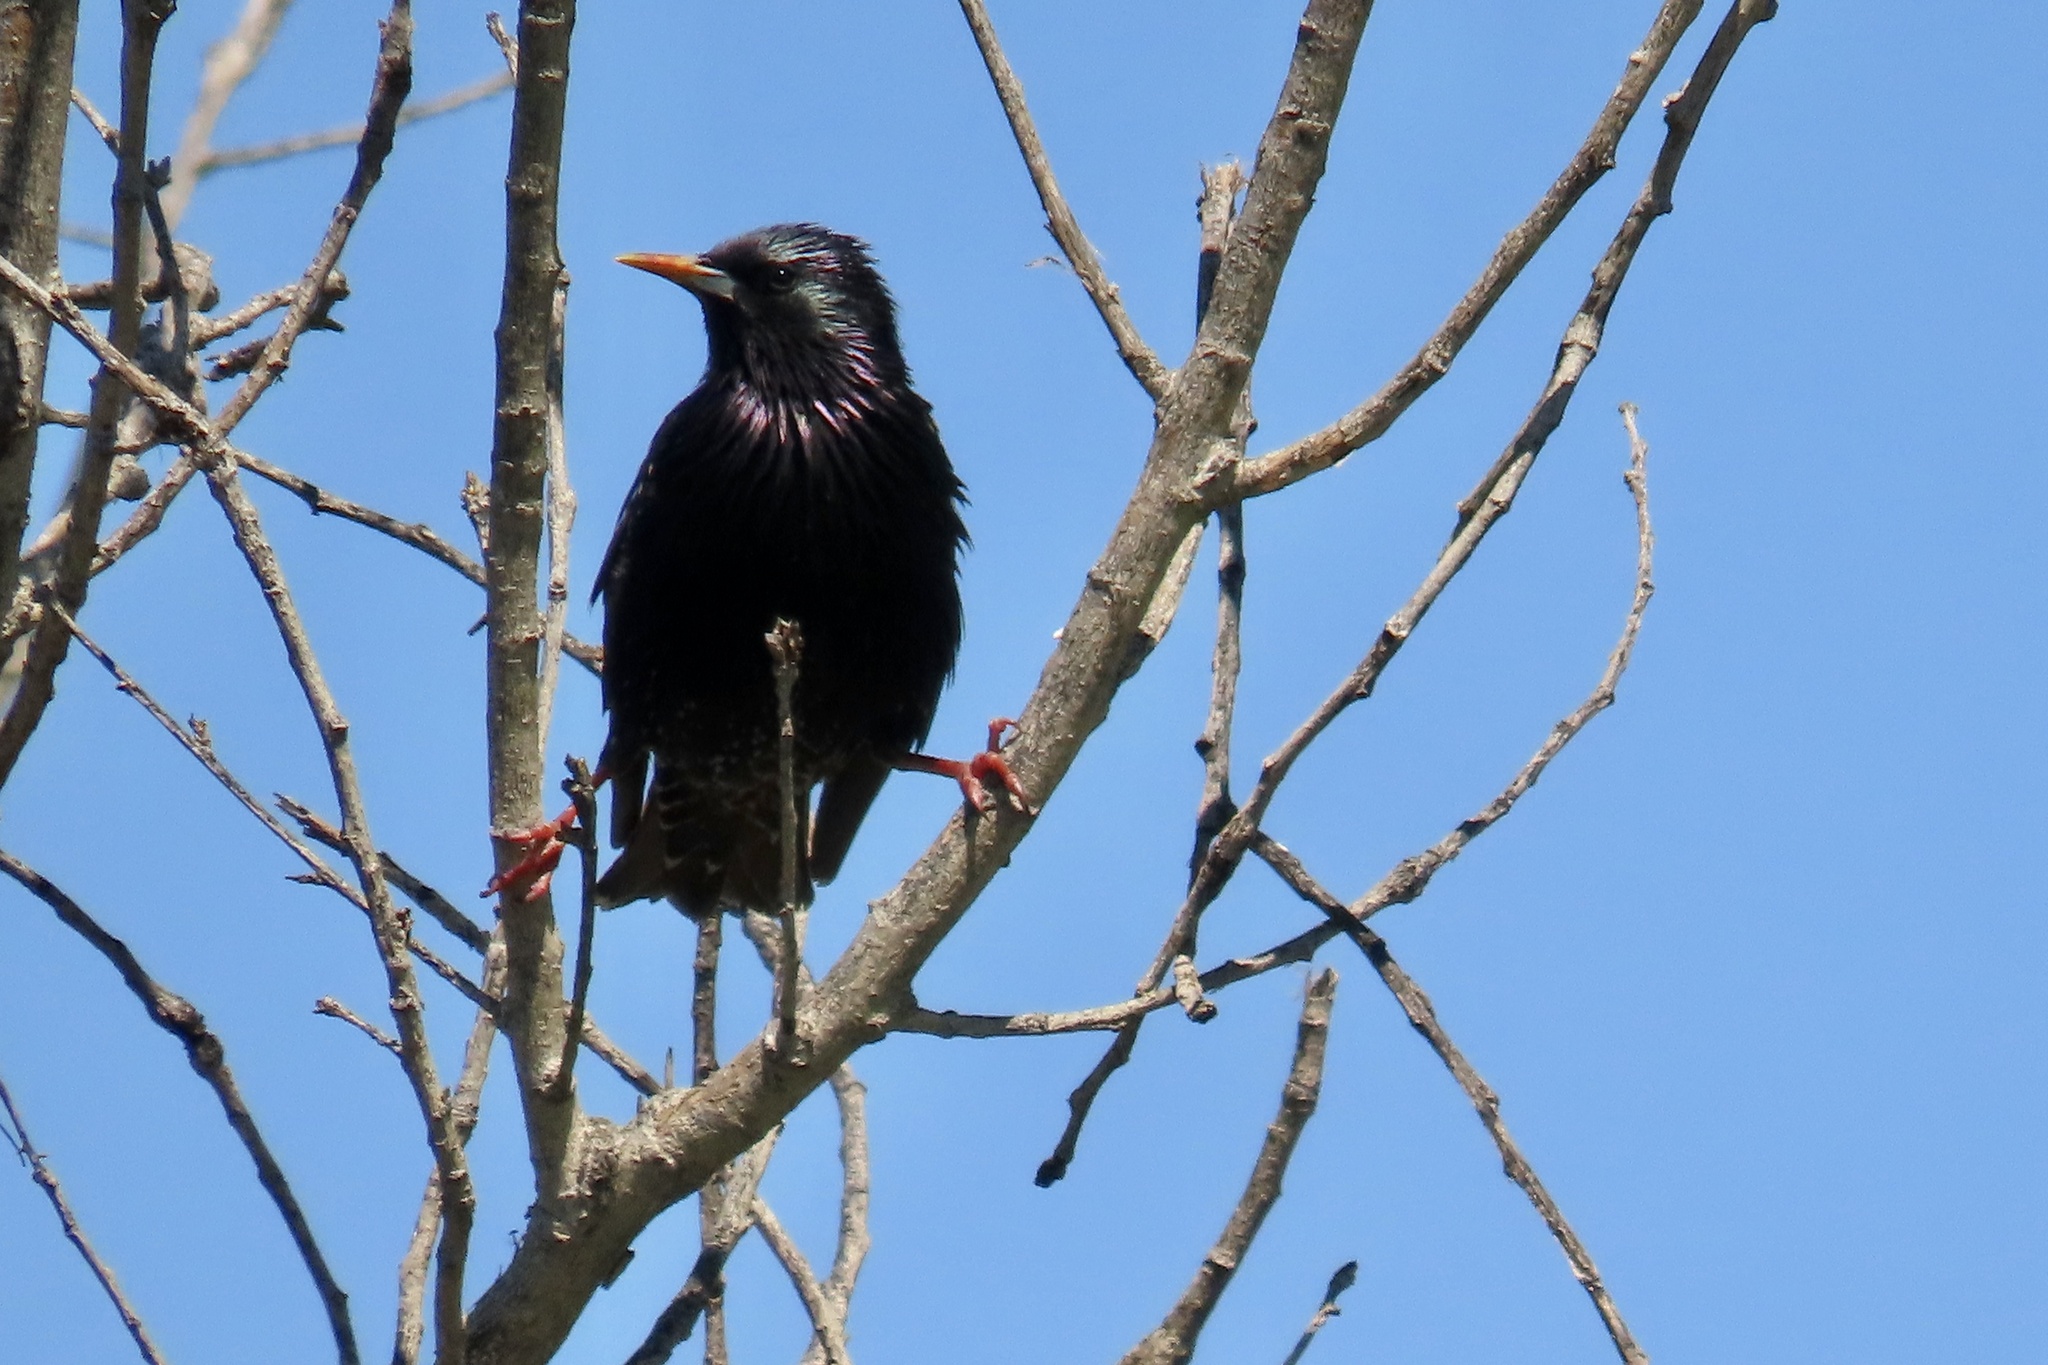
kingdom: Animalia
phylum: Chordata
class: Aves
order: Passeriformes
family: Sturnidae
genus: Sturnus
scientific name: Sturnus vulgaris
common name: Common starling
